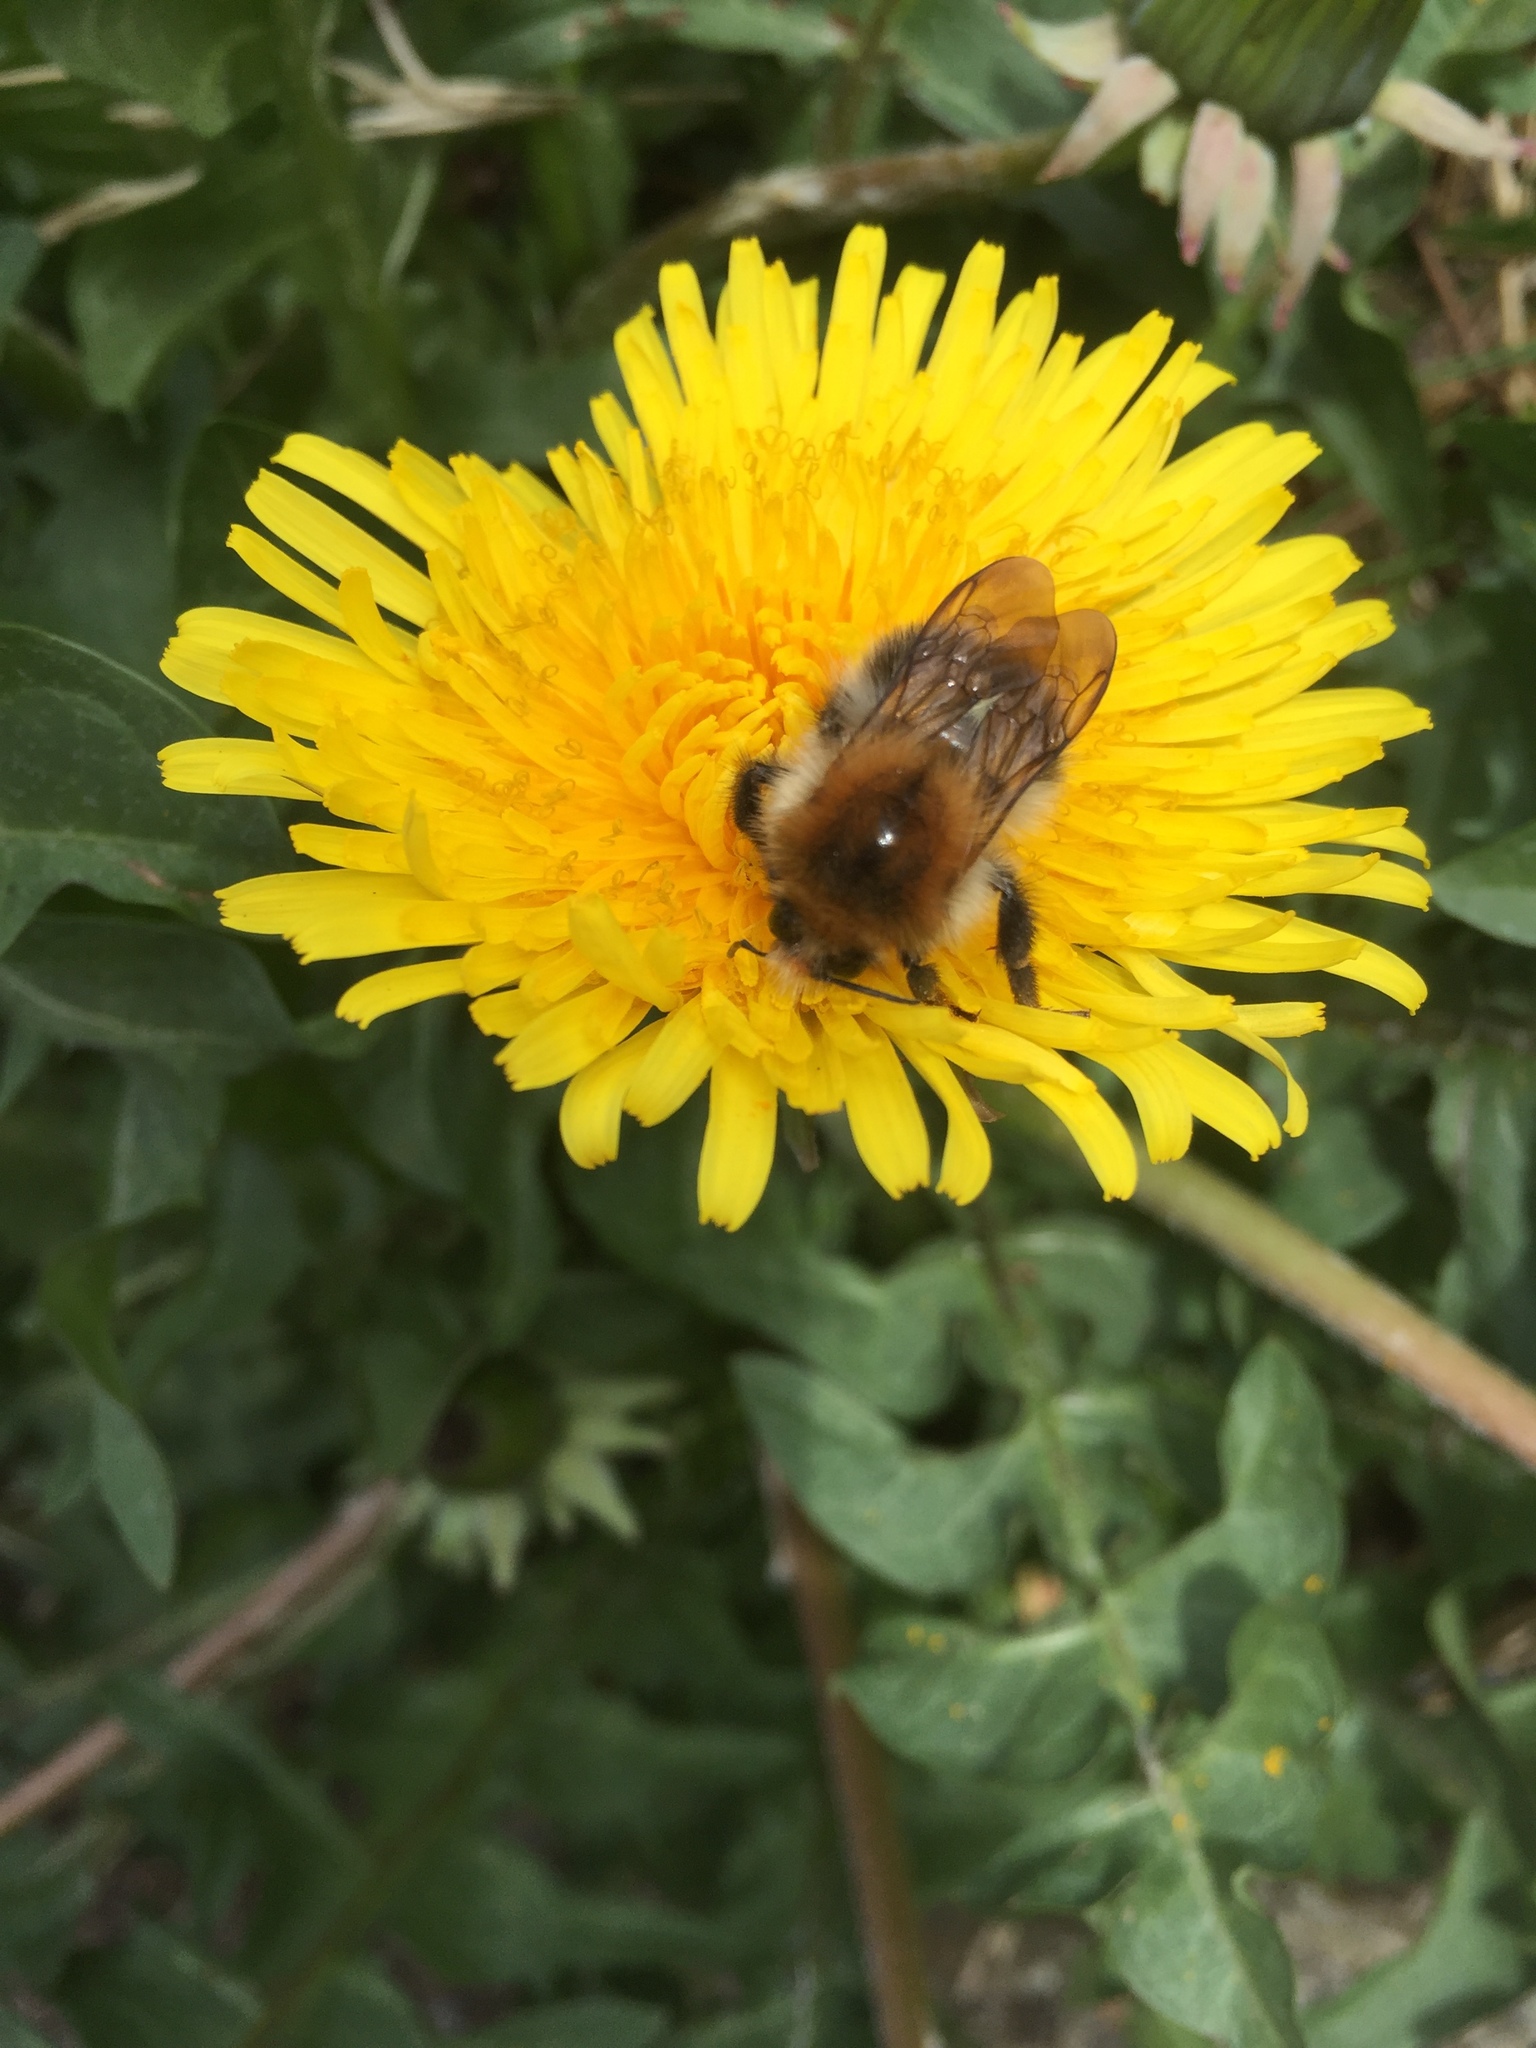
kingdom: Animalia
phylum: Arthropoda
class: Insecta
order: Hymenoptera
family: Apidae
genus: Bombus
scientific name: Bombus pascuorum
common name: Common carder bee
